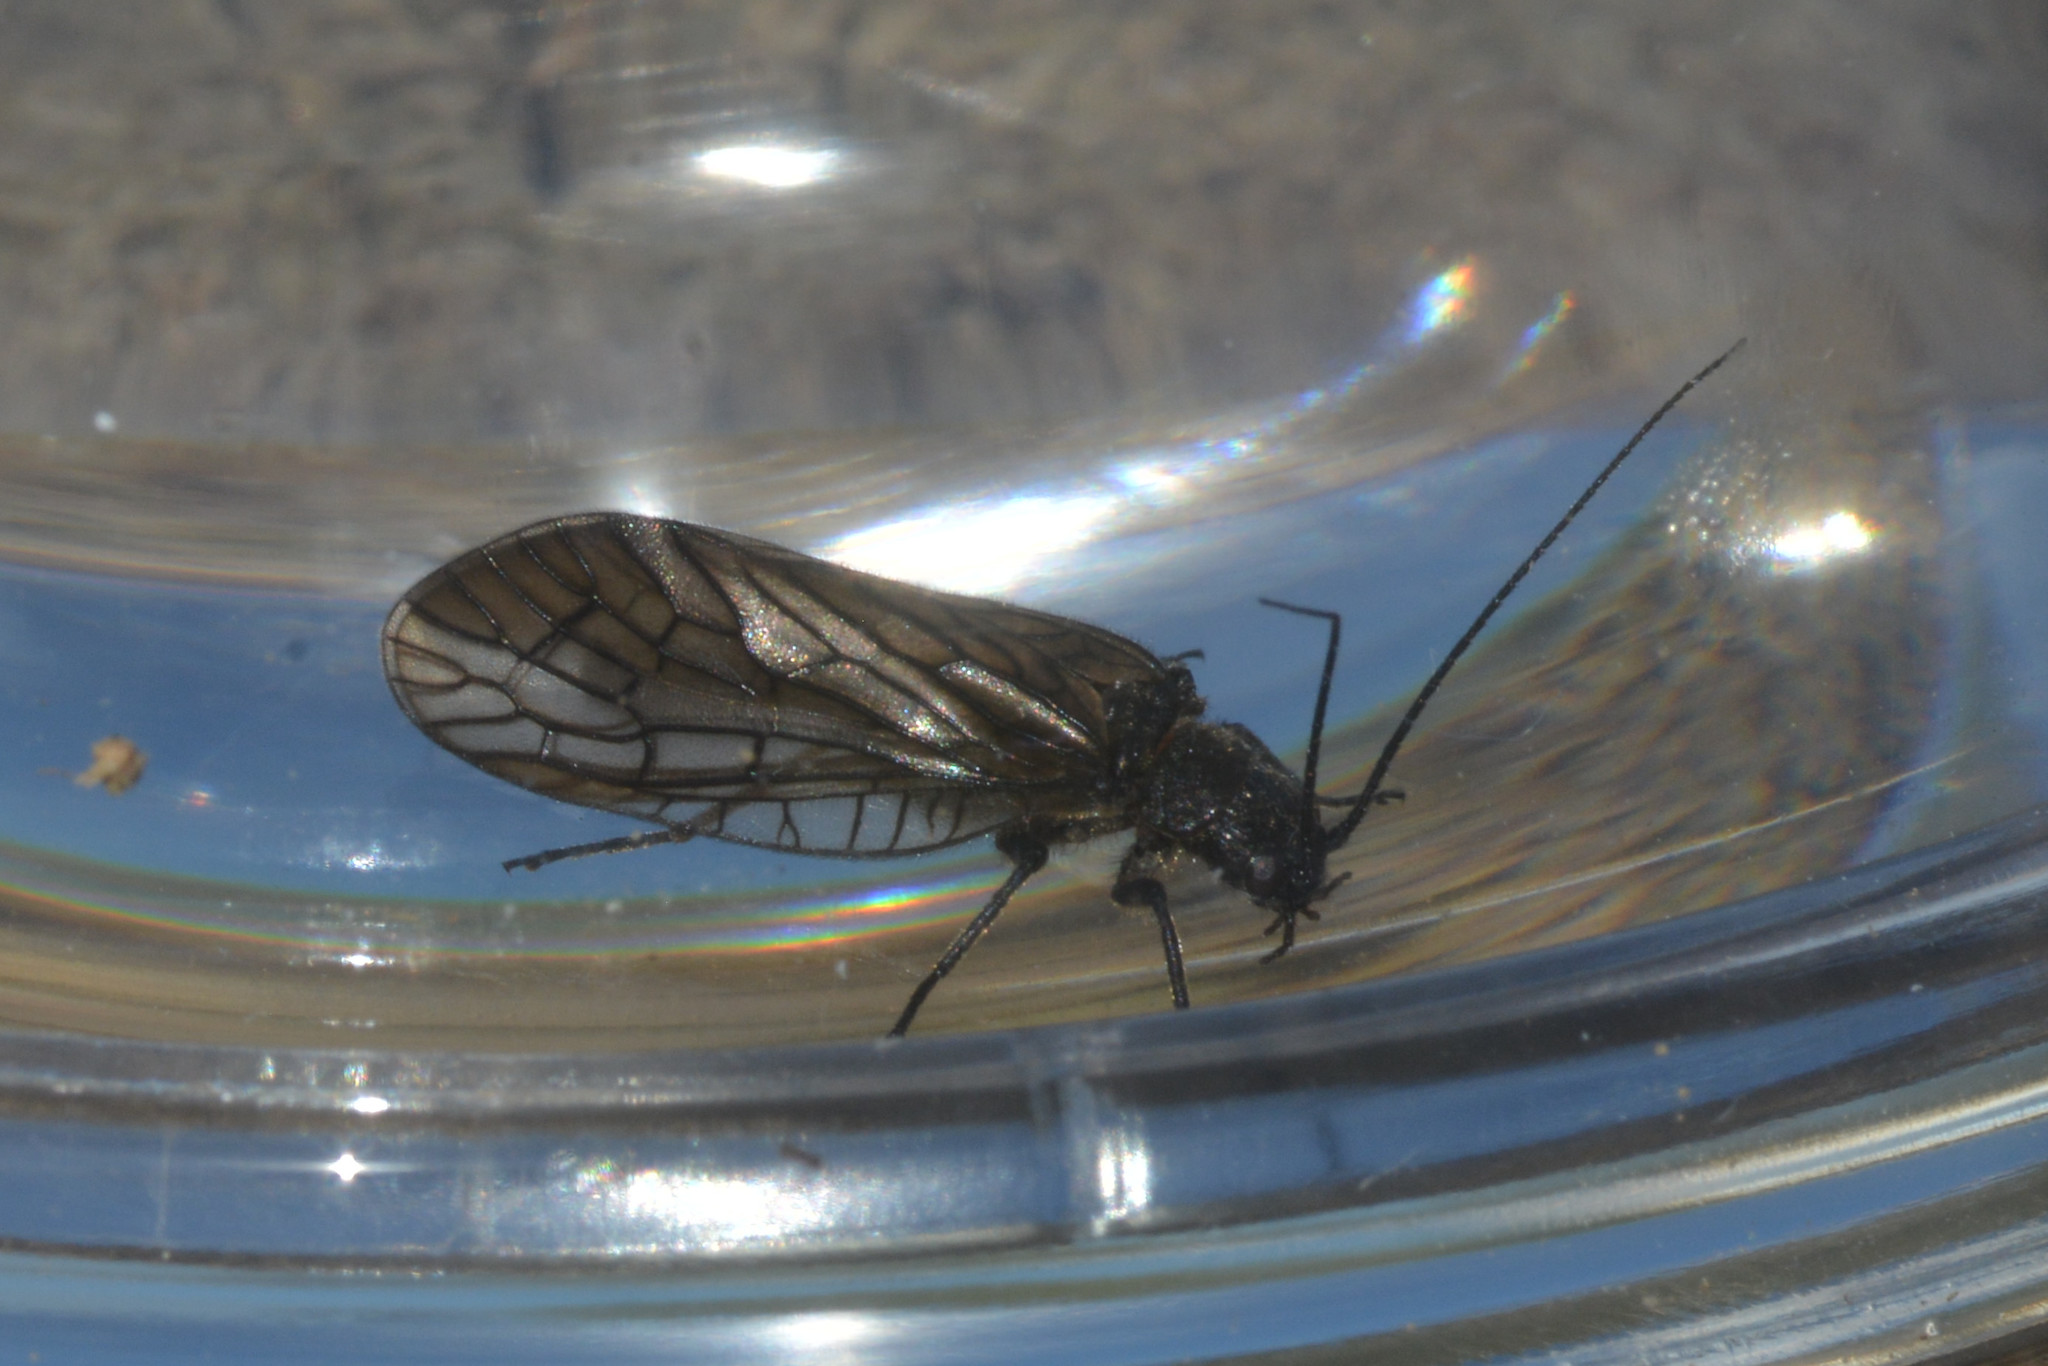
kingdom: Animalia
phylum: Arthropoda
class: Insecta
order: Megaloptera
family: Sialidae
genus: Sialis
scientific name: Sialis
